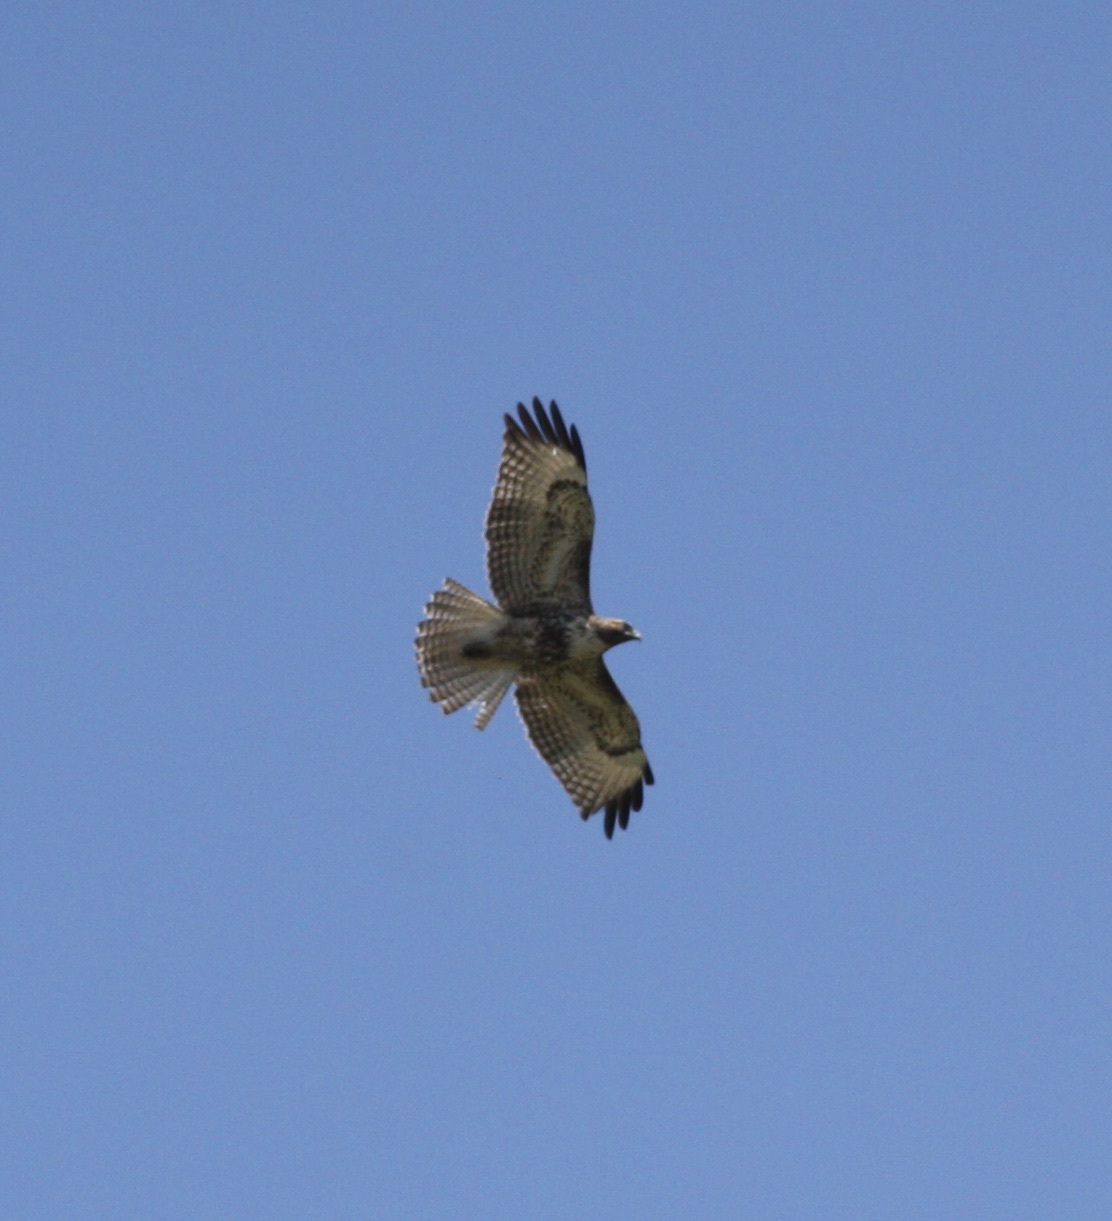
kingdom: Animalia
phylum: Chordata
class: Aves
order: Accipitriformes
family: Accipitridae
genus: Buteo
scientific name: Buteo jamaicensis
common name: Red-tailed hawk
